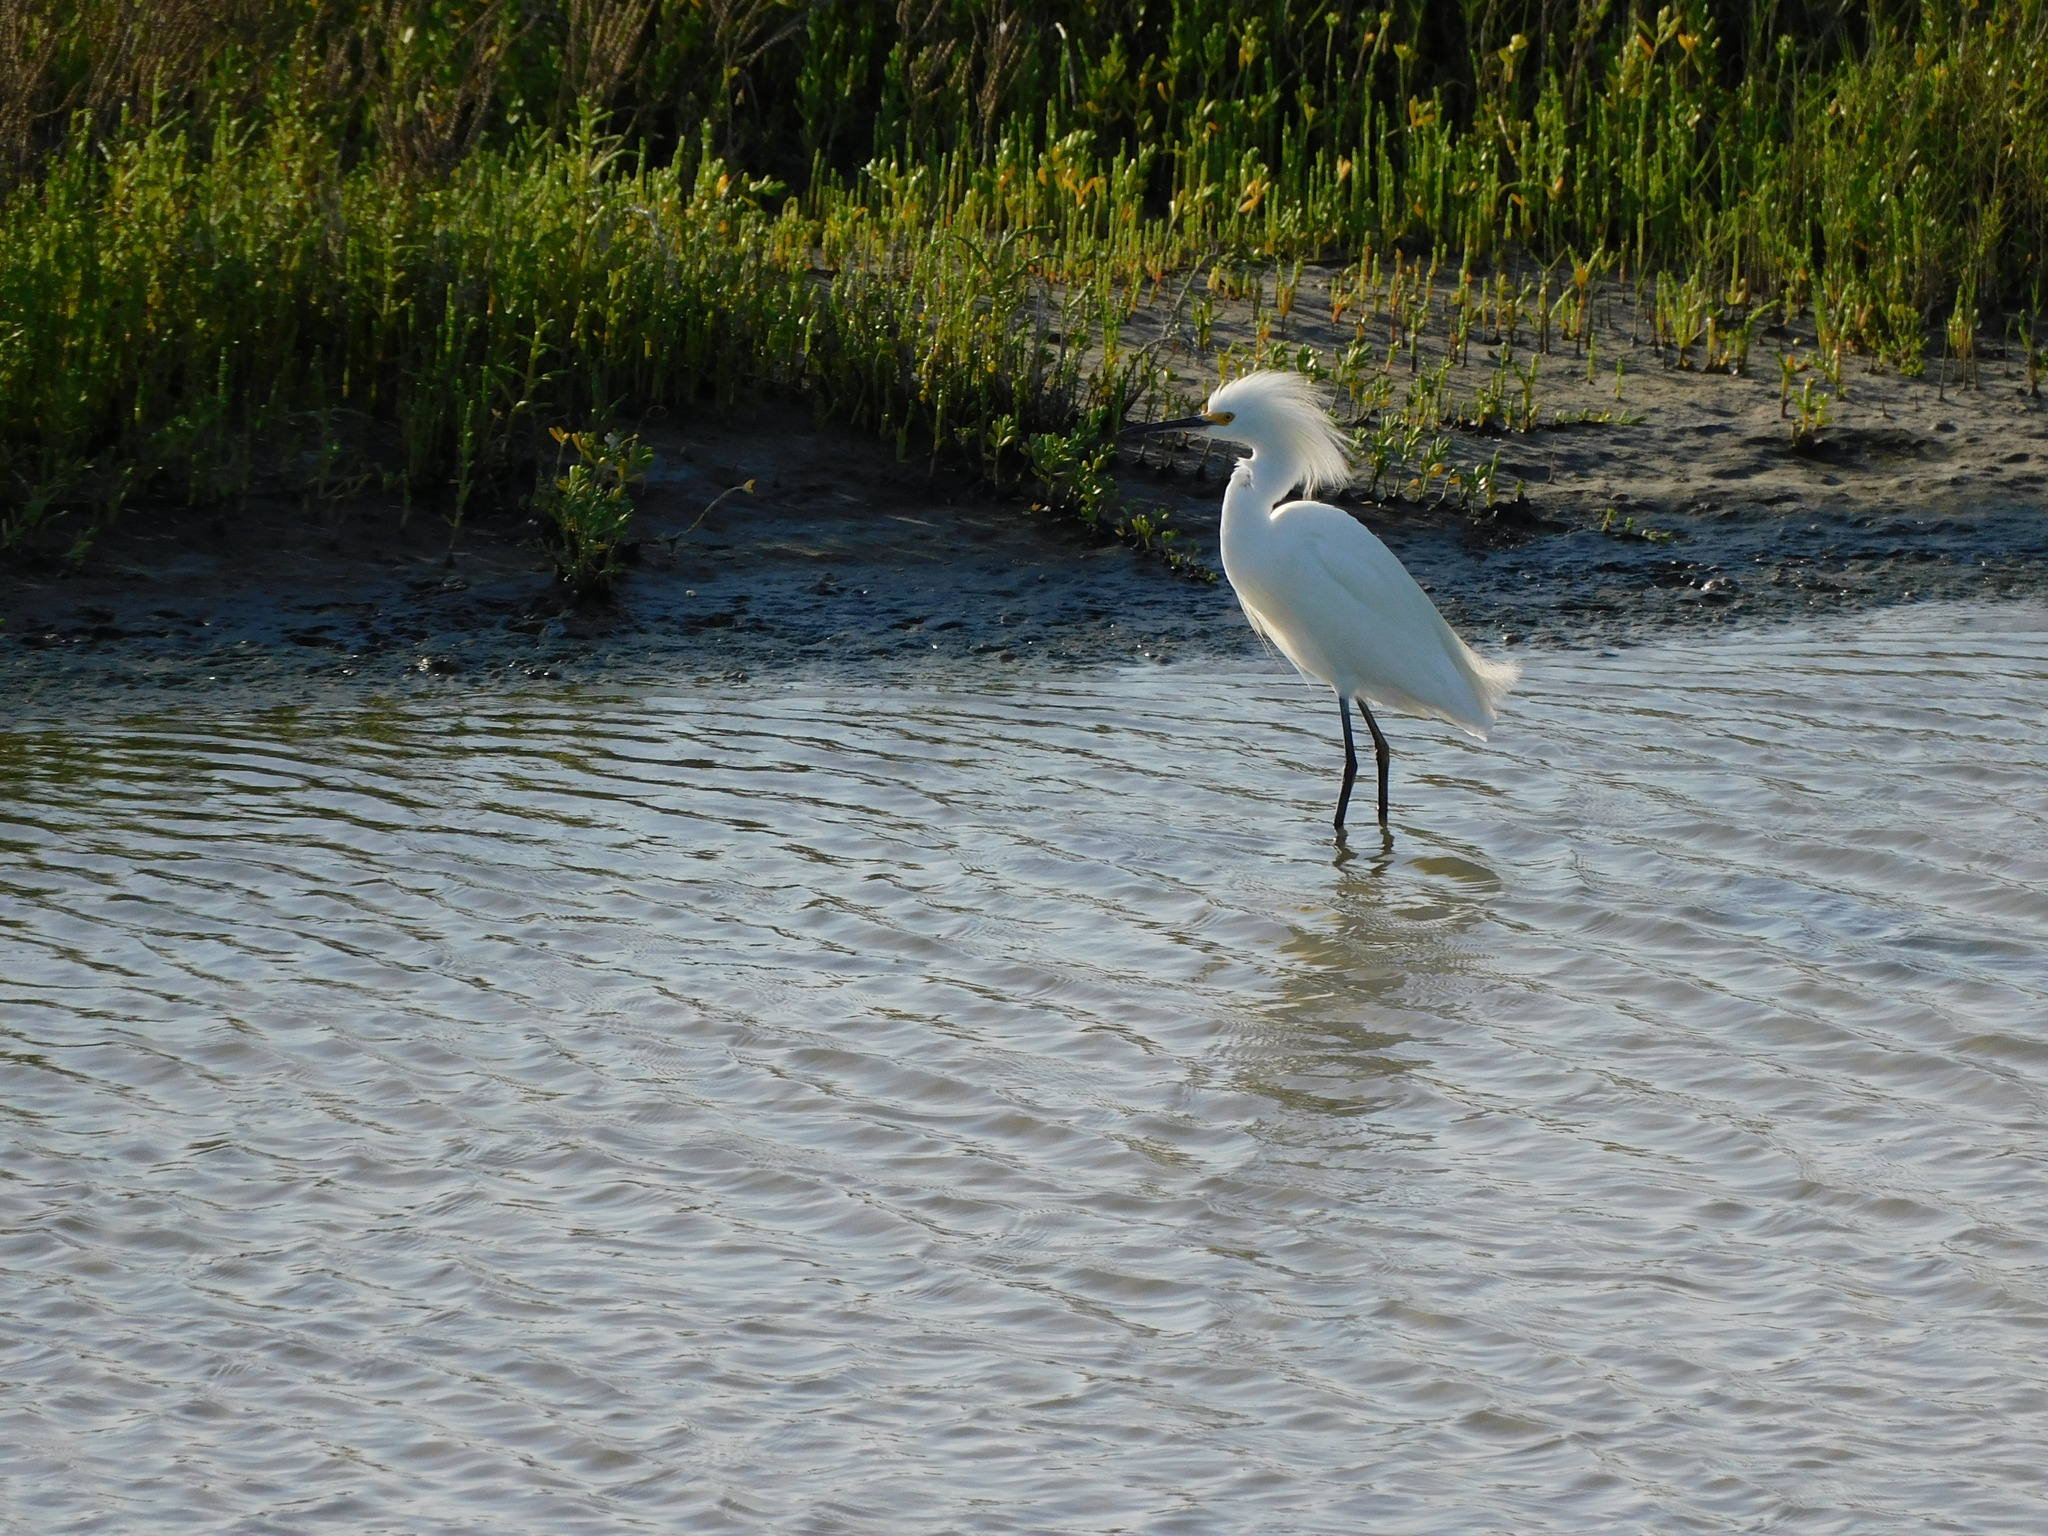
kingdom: Animalia
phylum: Chordata
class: Aves
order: Pelecaniformes
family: Ardeidae
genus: Egretta
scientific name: Egretta thula
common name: Snowy egret
